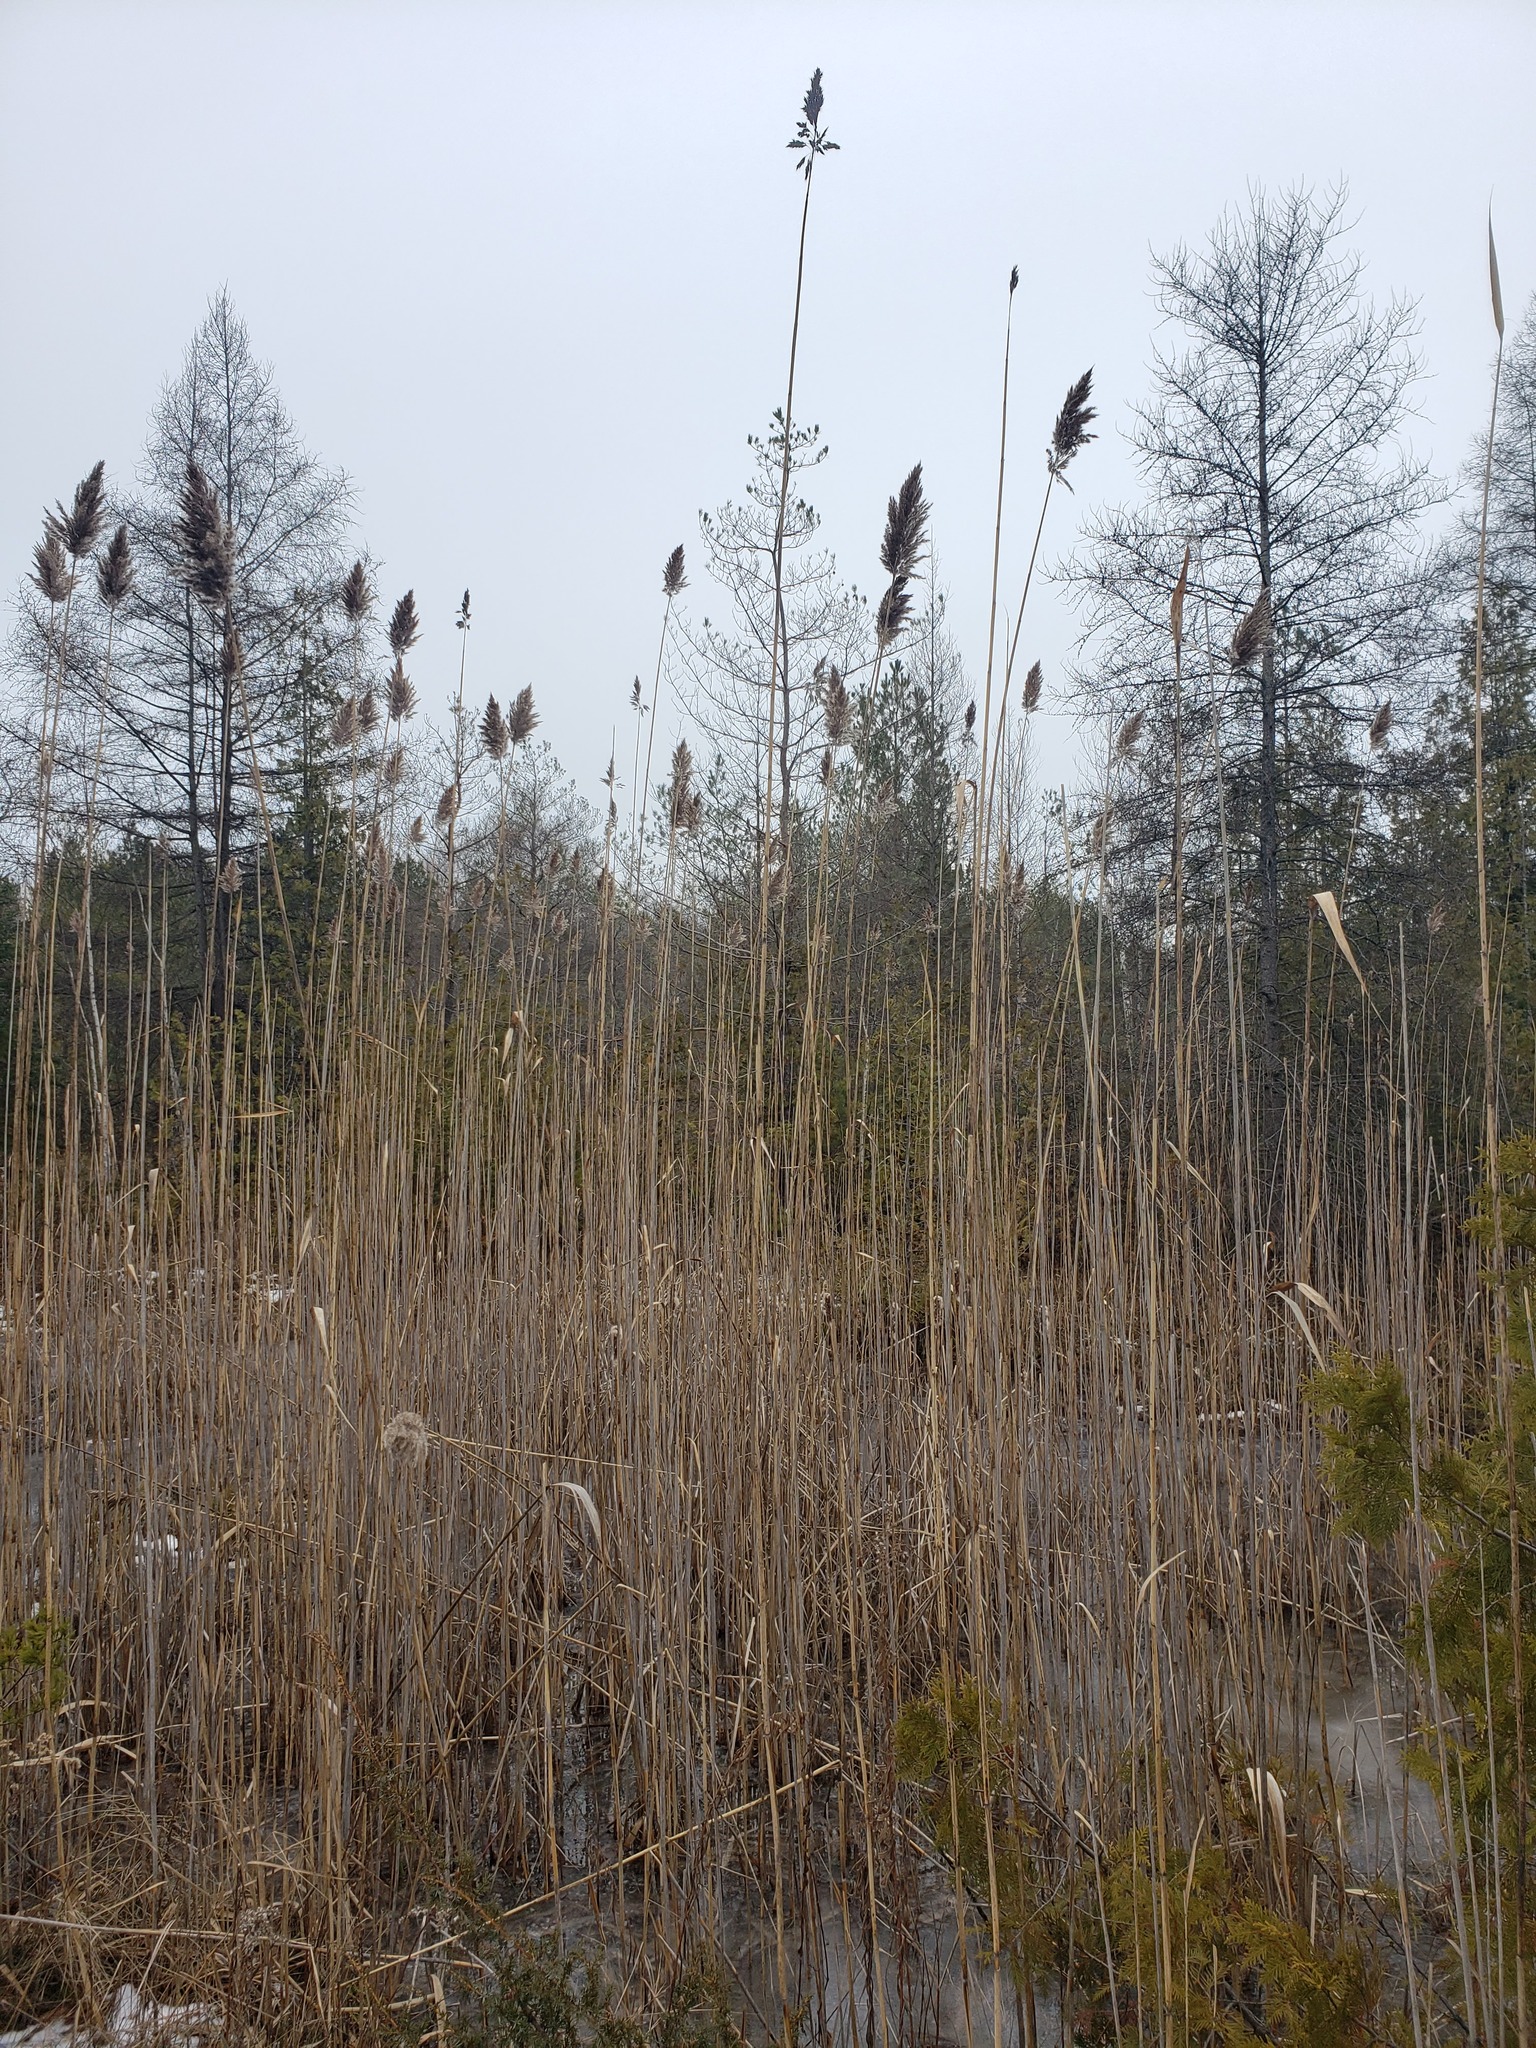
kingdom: Plantae
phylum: Tracheophyta
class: Liliopsida
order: Poales
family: Poaceae
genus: Phragmites
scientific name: Phragmites australis
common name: Common reed
